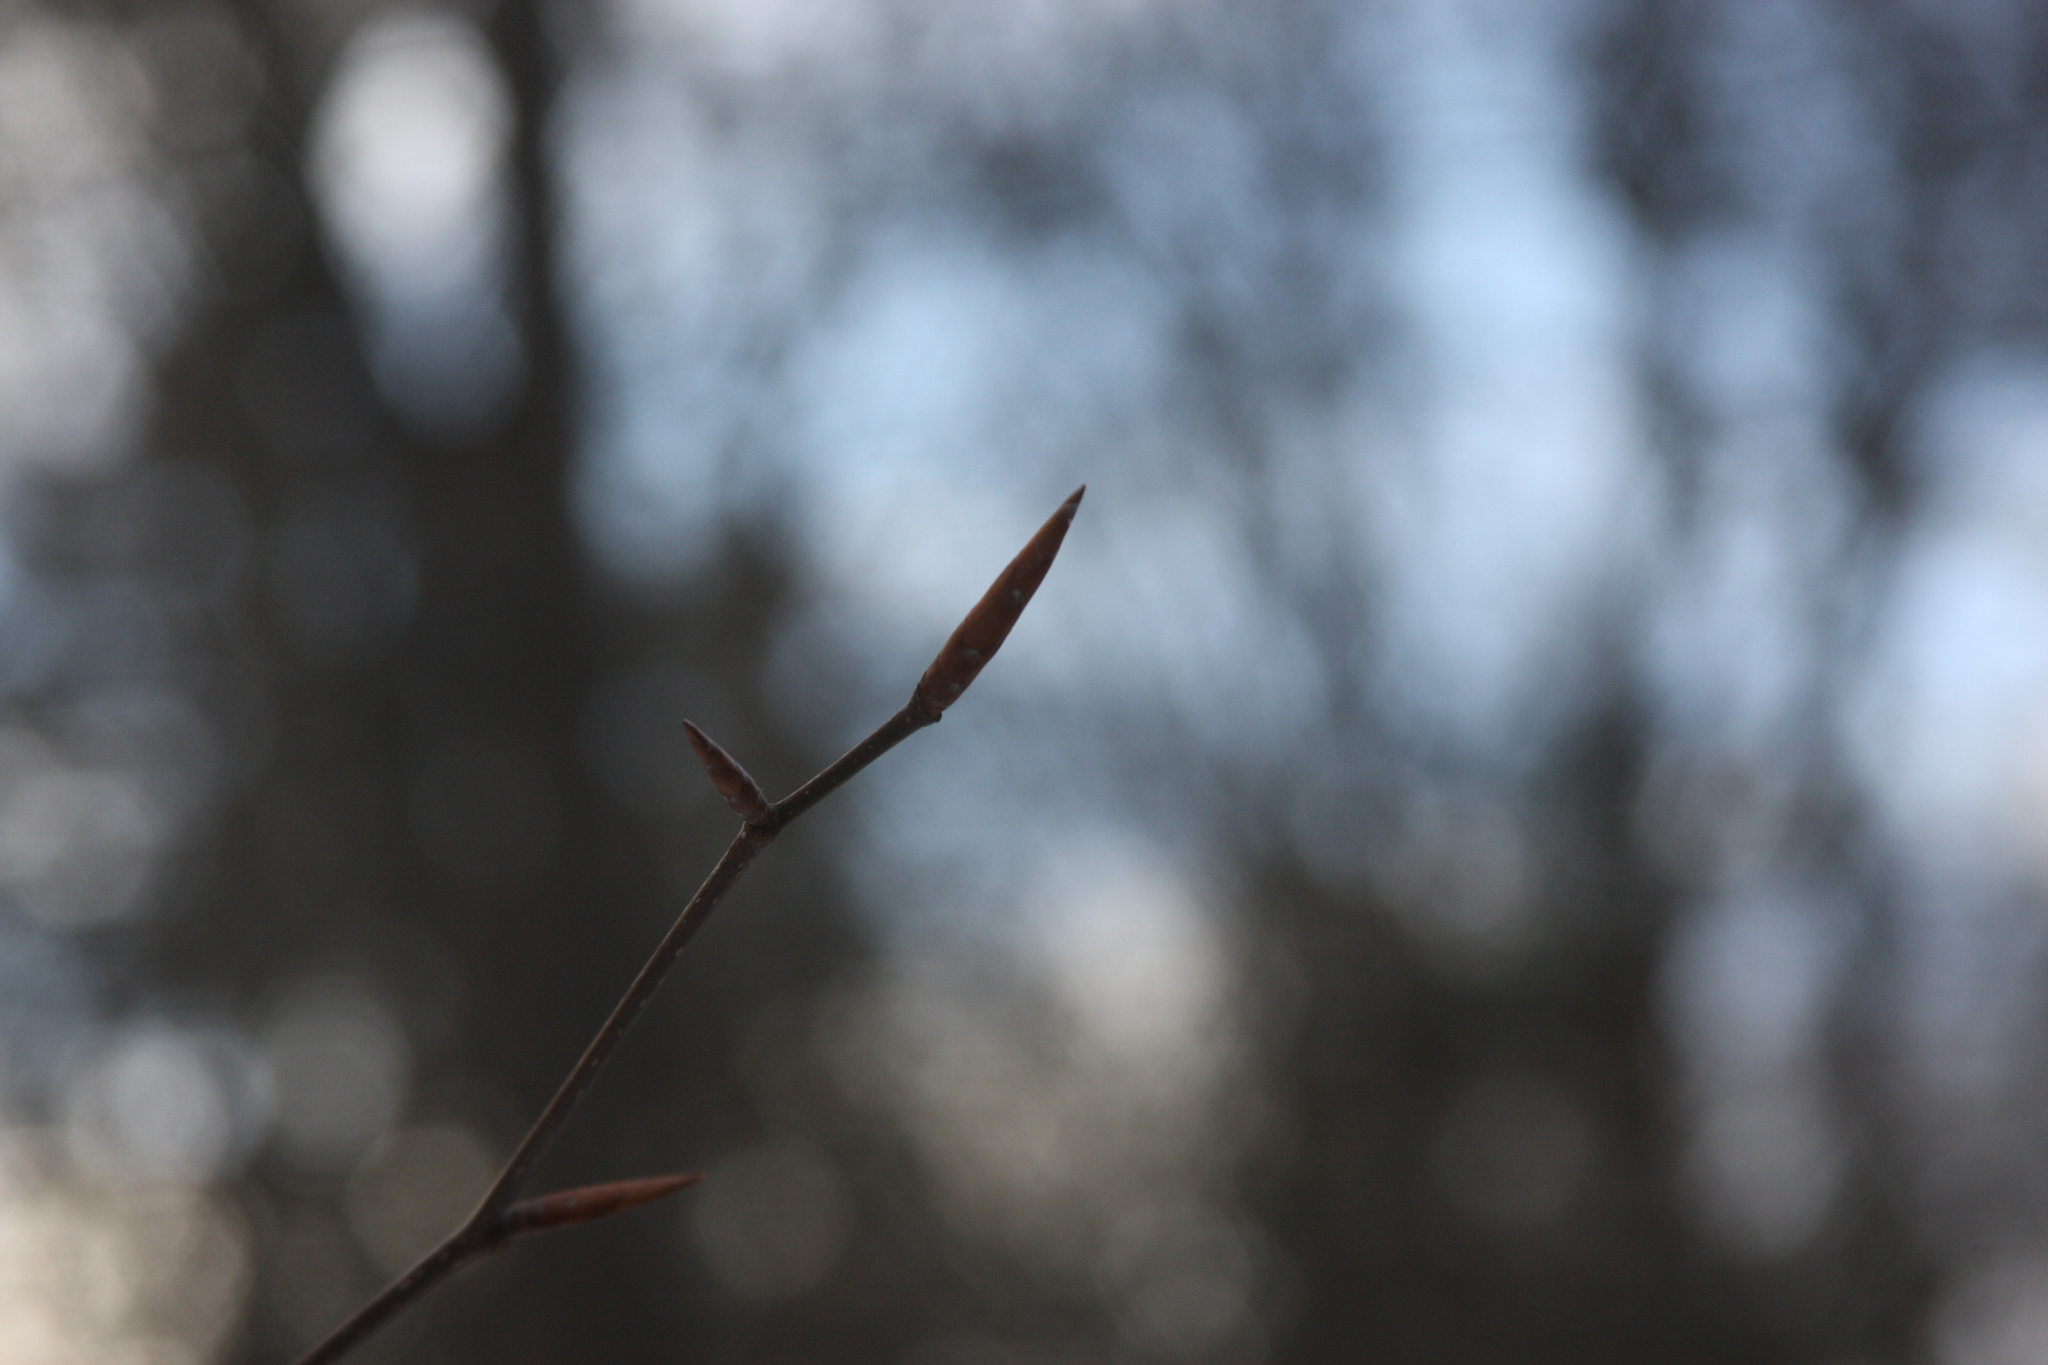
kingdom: Plantae
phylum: Tracheophyta
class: Magnoliopsida
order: Fagales
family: Fagaceae
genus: Fagus
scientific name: Fagus grandifolia
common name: American beech
